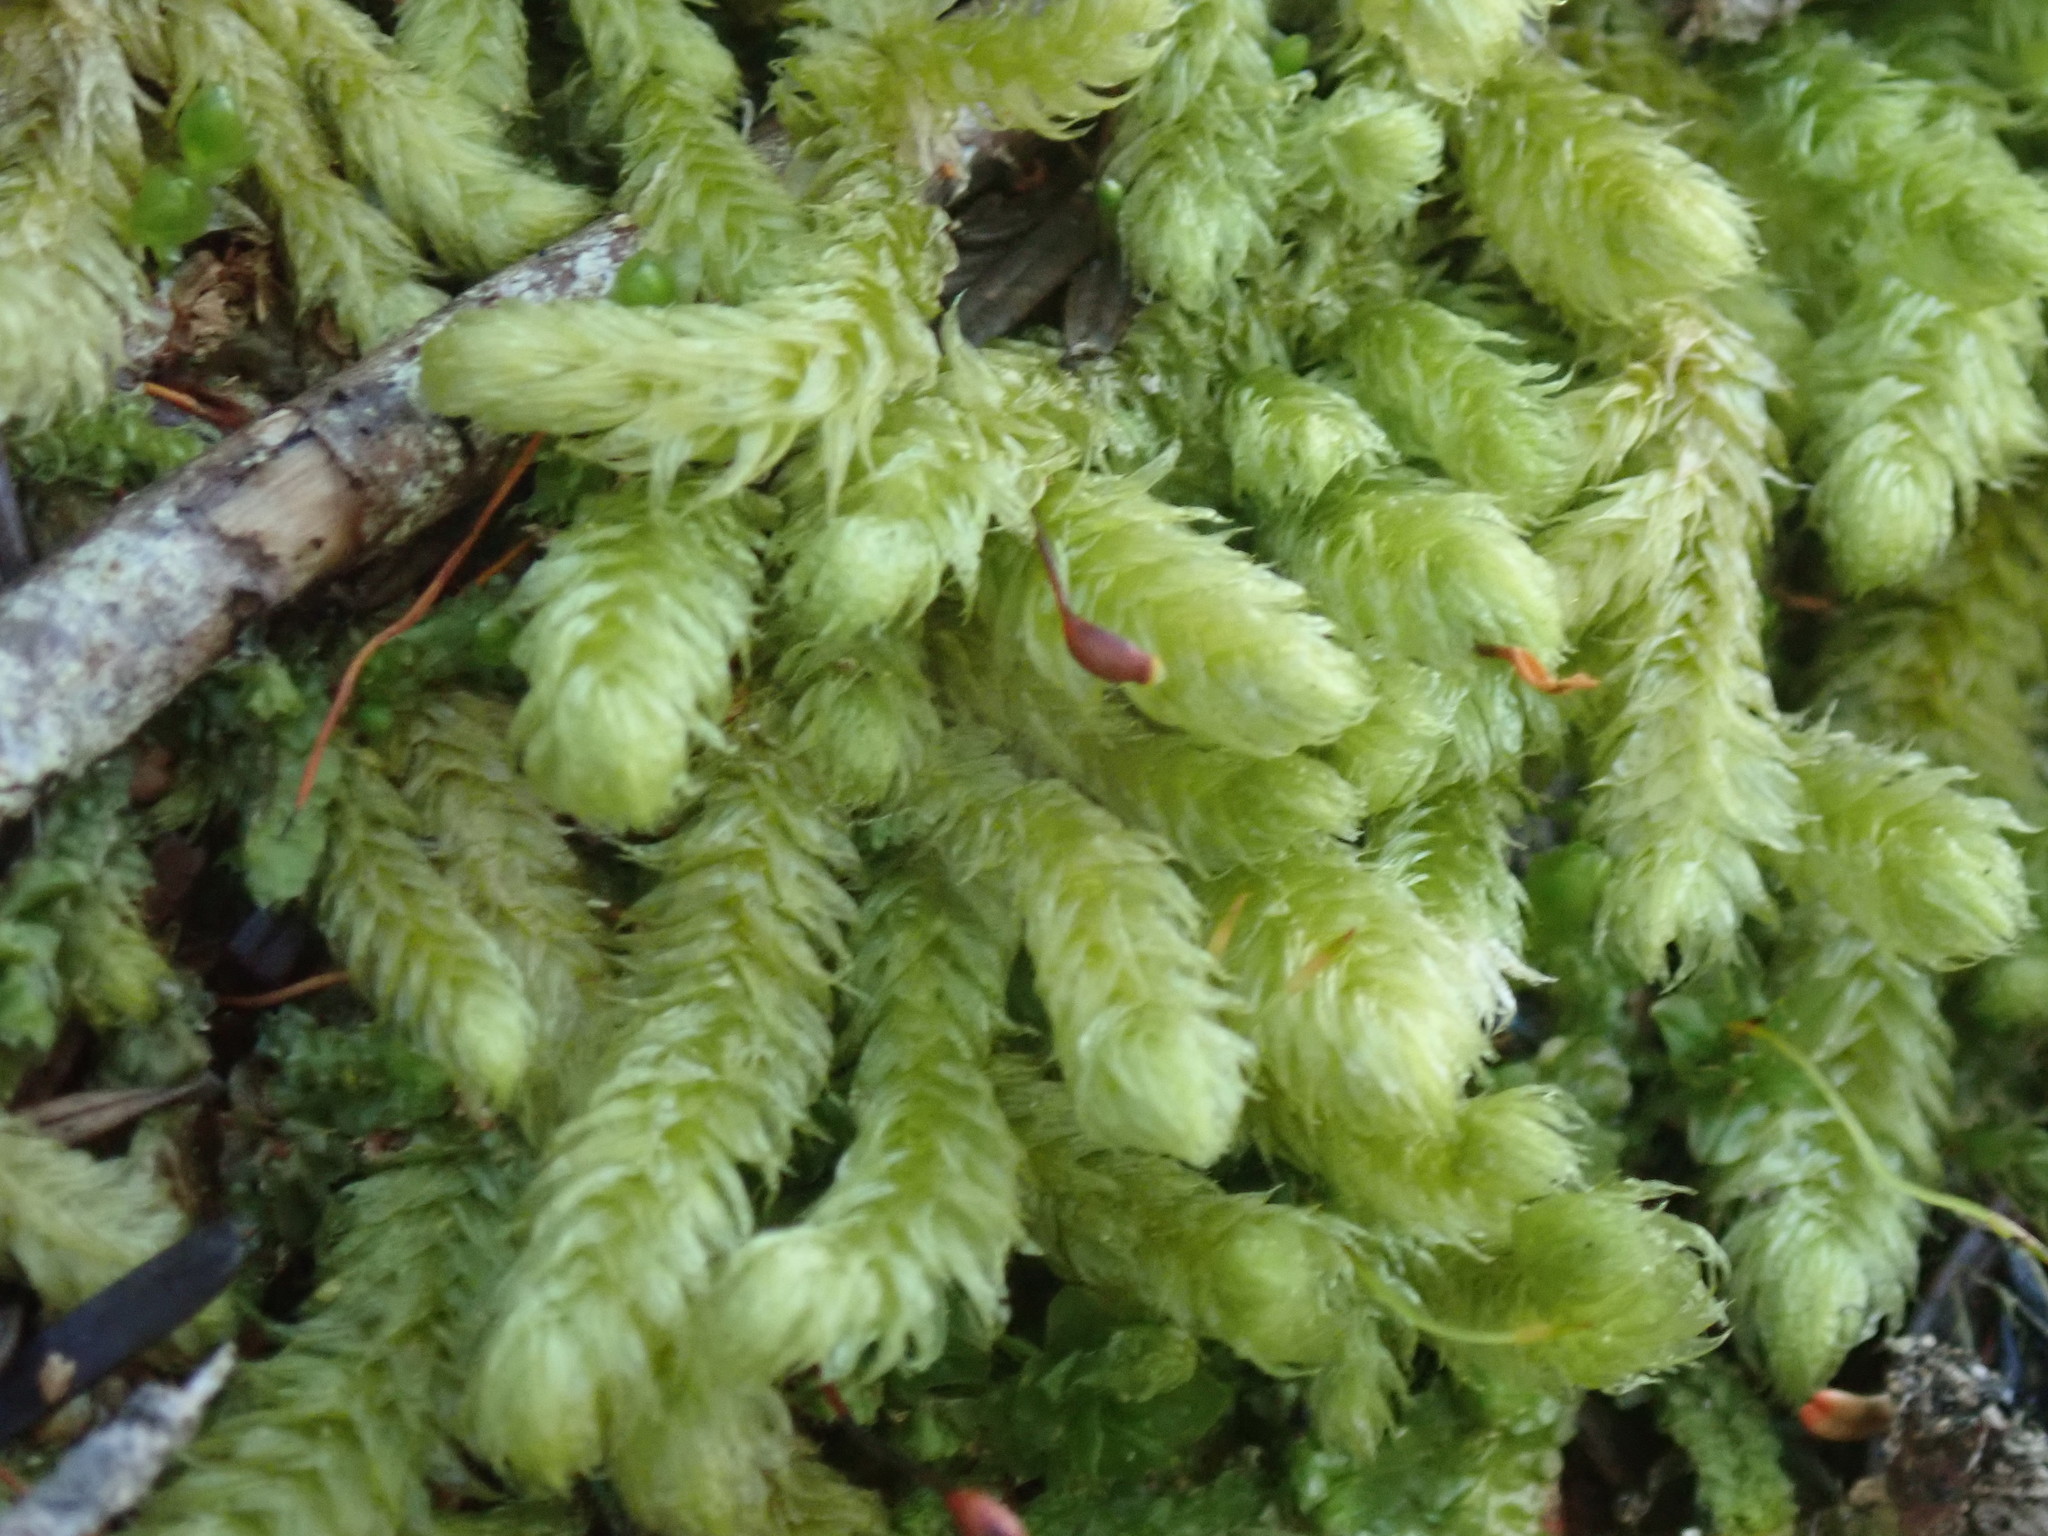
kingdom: Plantae
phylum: Bryophyta
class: Bryopsida
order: Hypnales
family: Hylocomiaceae
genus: Rhytidiopsis
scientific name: Rhytidiopsis robusta
